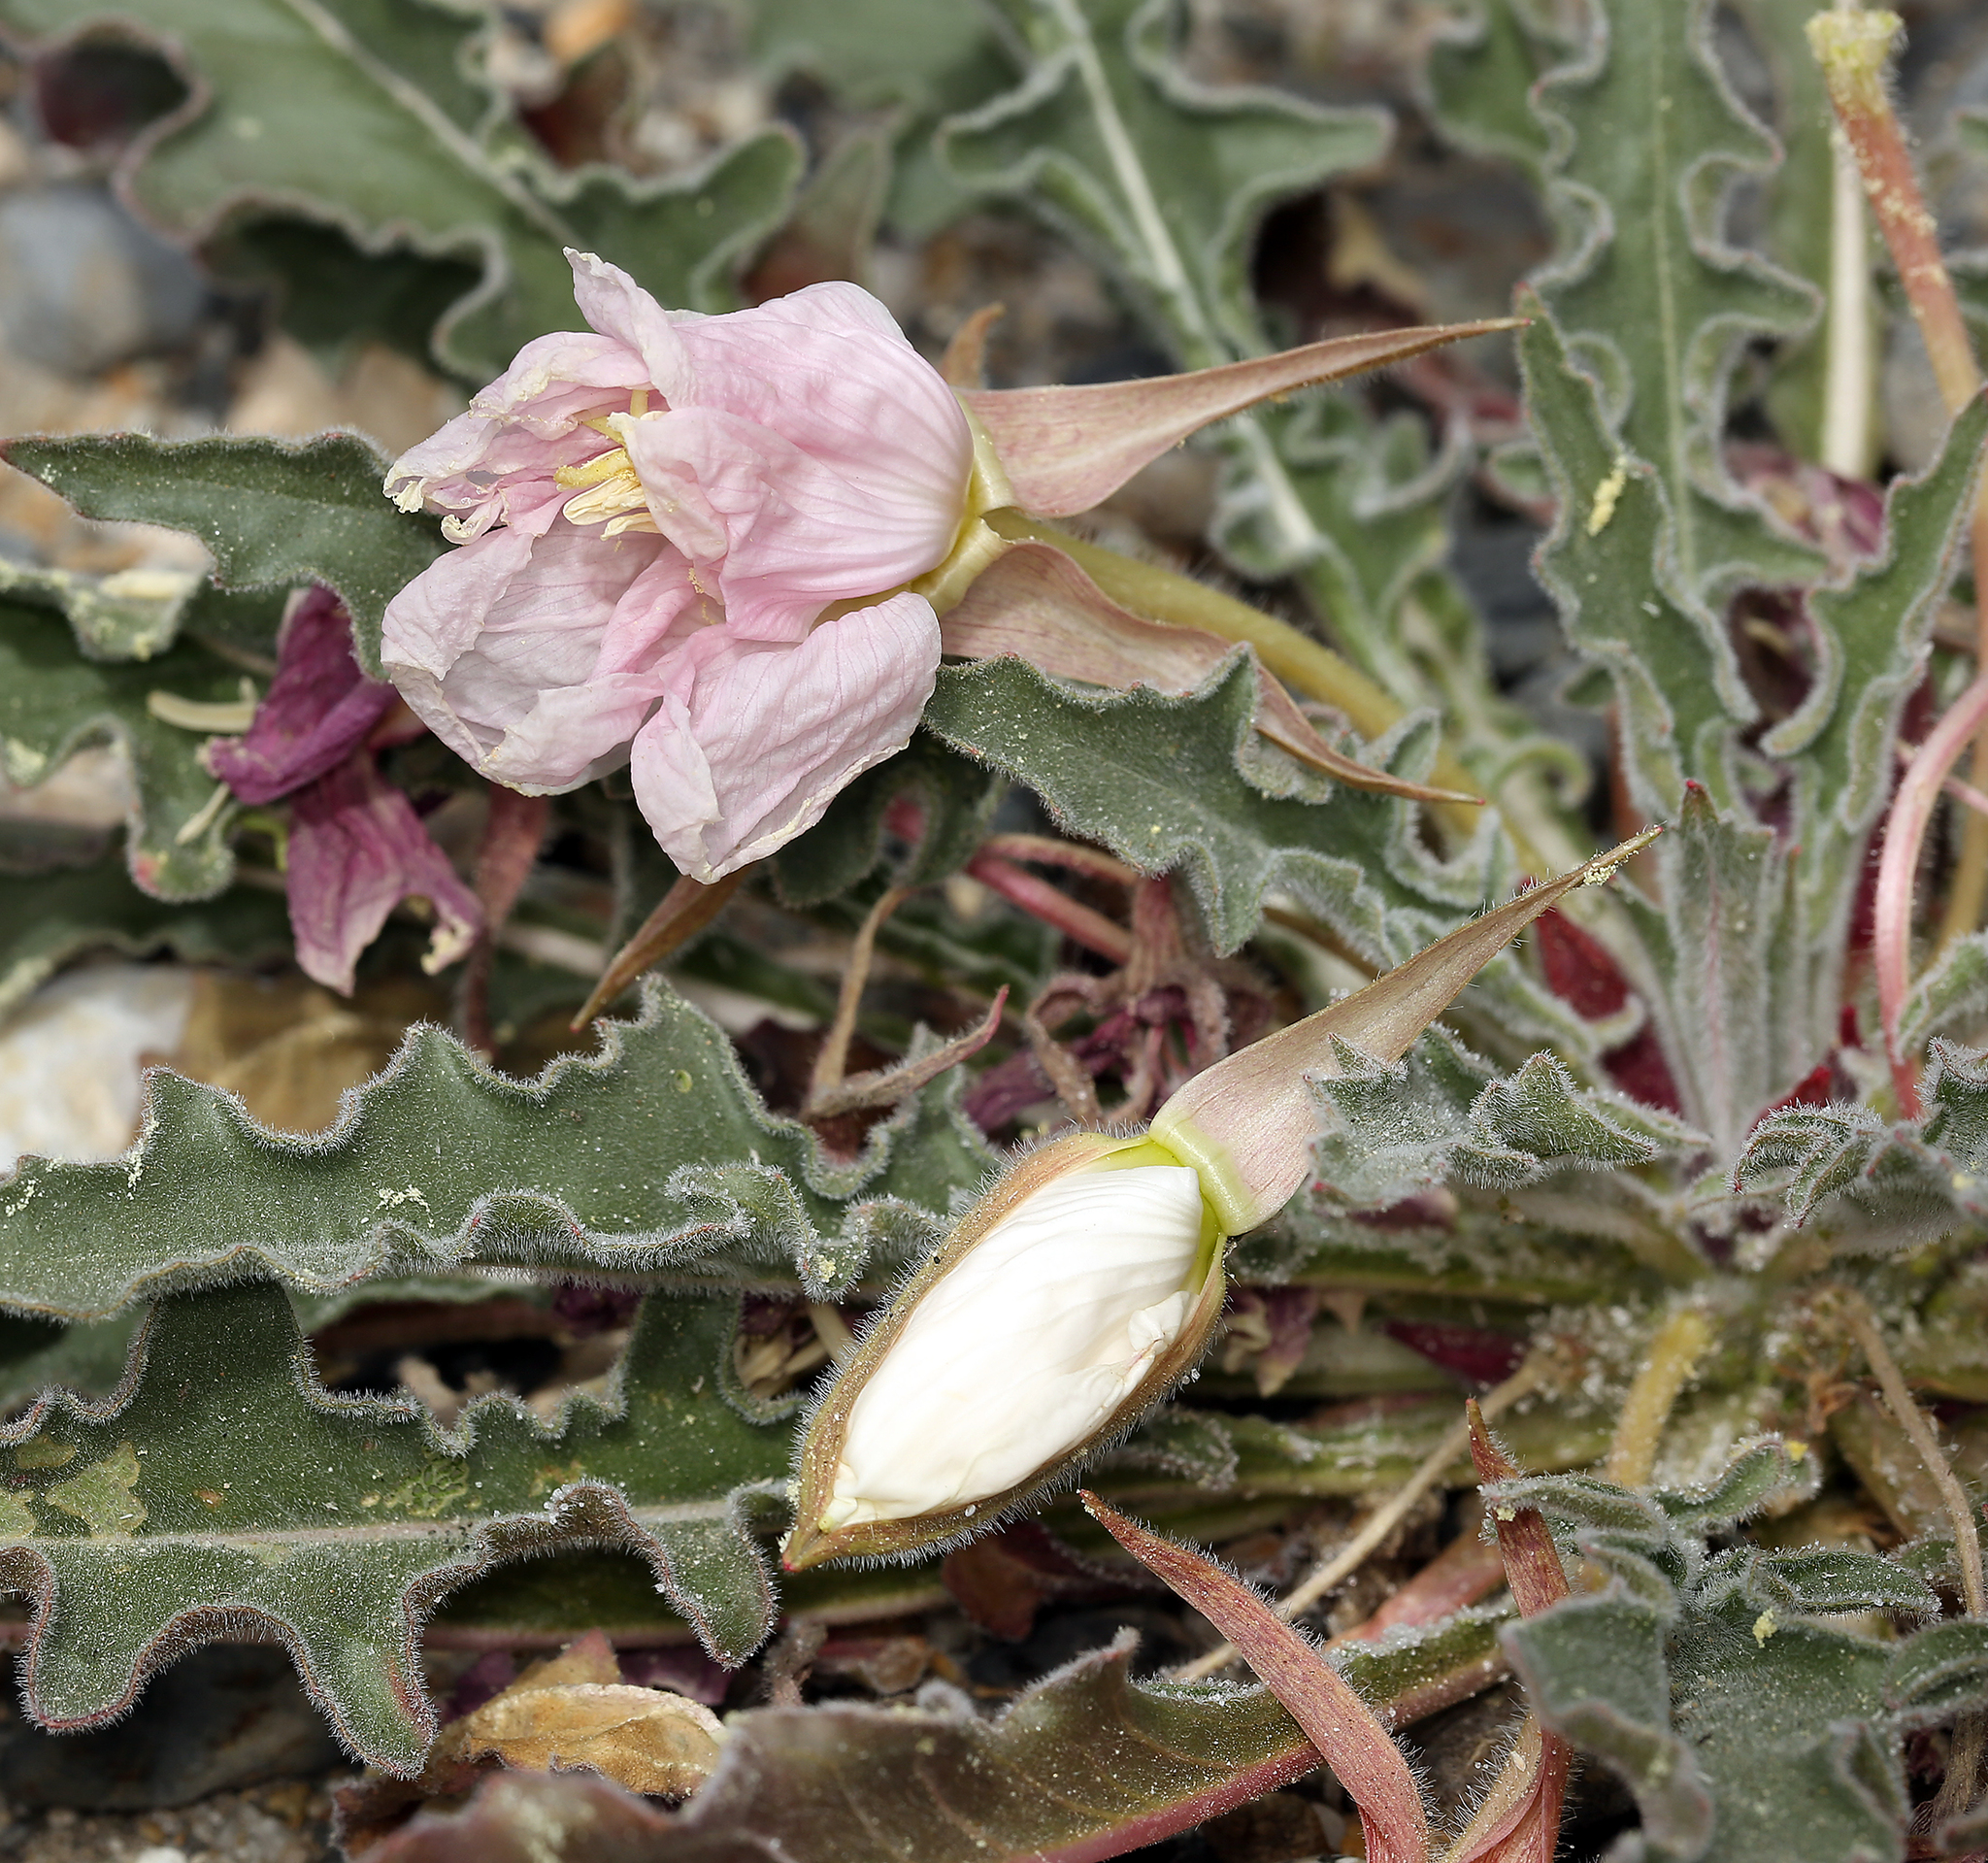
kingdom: Plantae
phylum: Tracheophyta
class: Magnoliopsida
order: Myrtales
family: Onagraceae
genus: Oenothera
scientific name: Oenothera cespitosa
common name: Tufted evening-primrose
